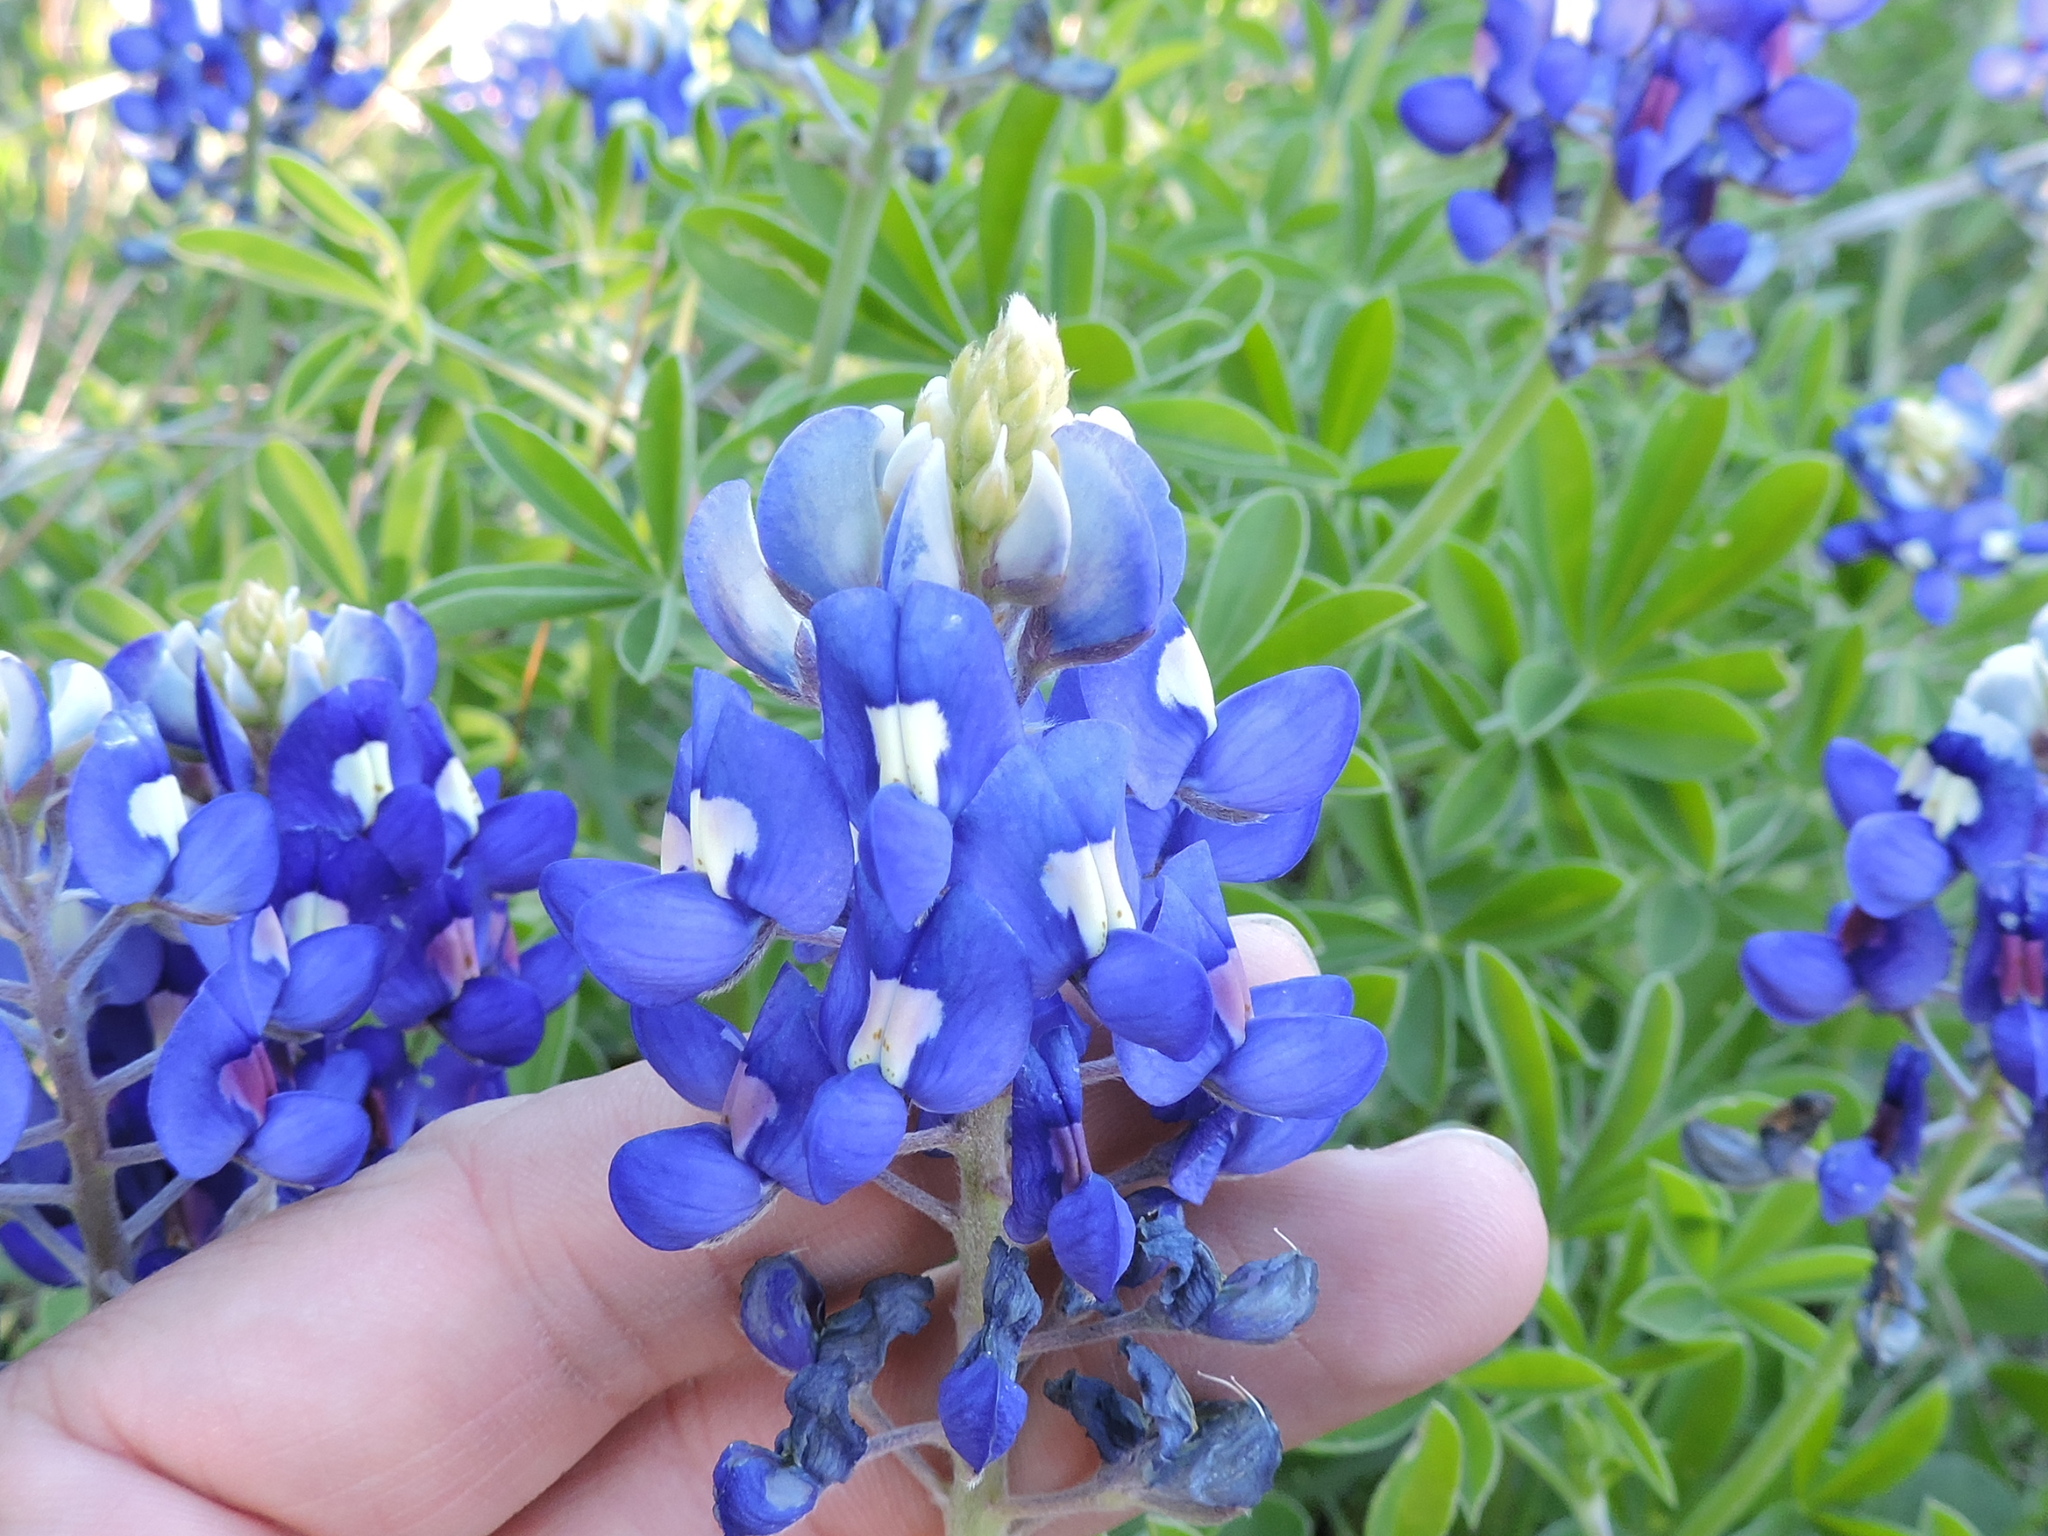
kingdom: Plantae
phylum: Tracheophyta
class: Magnoliopsida
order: Fabales
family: Fabaceae
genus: Lupinus
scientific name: Lupinus texensis
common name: Texas bluebonnet
